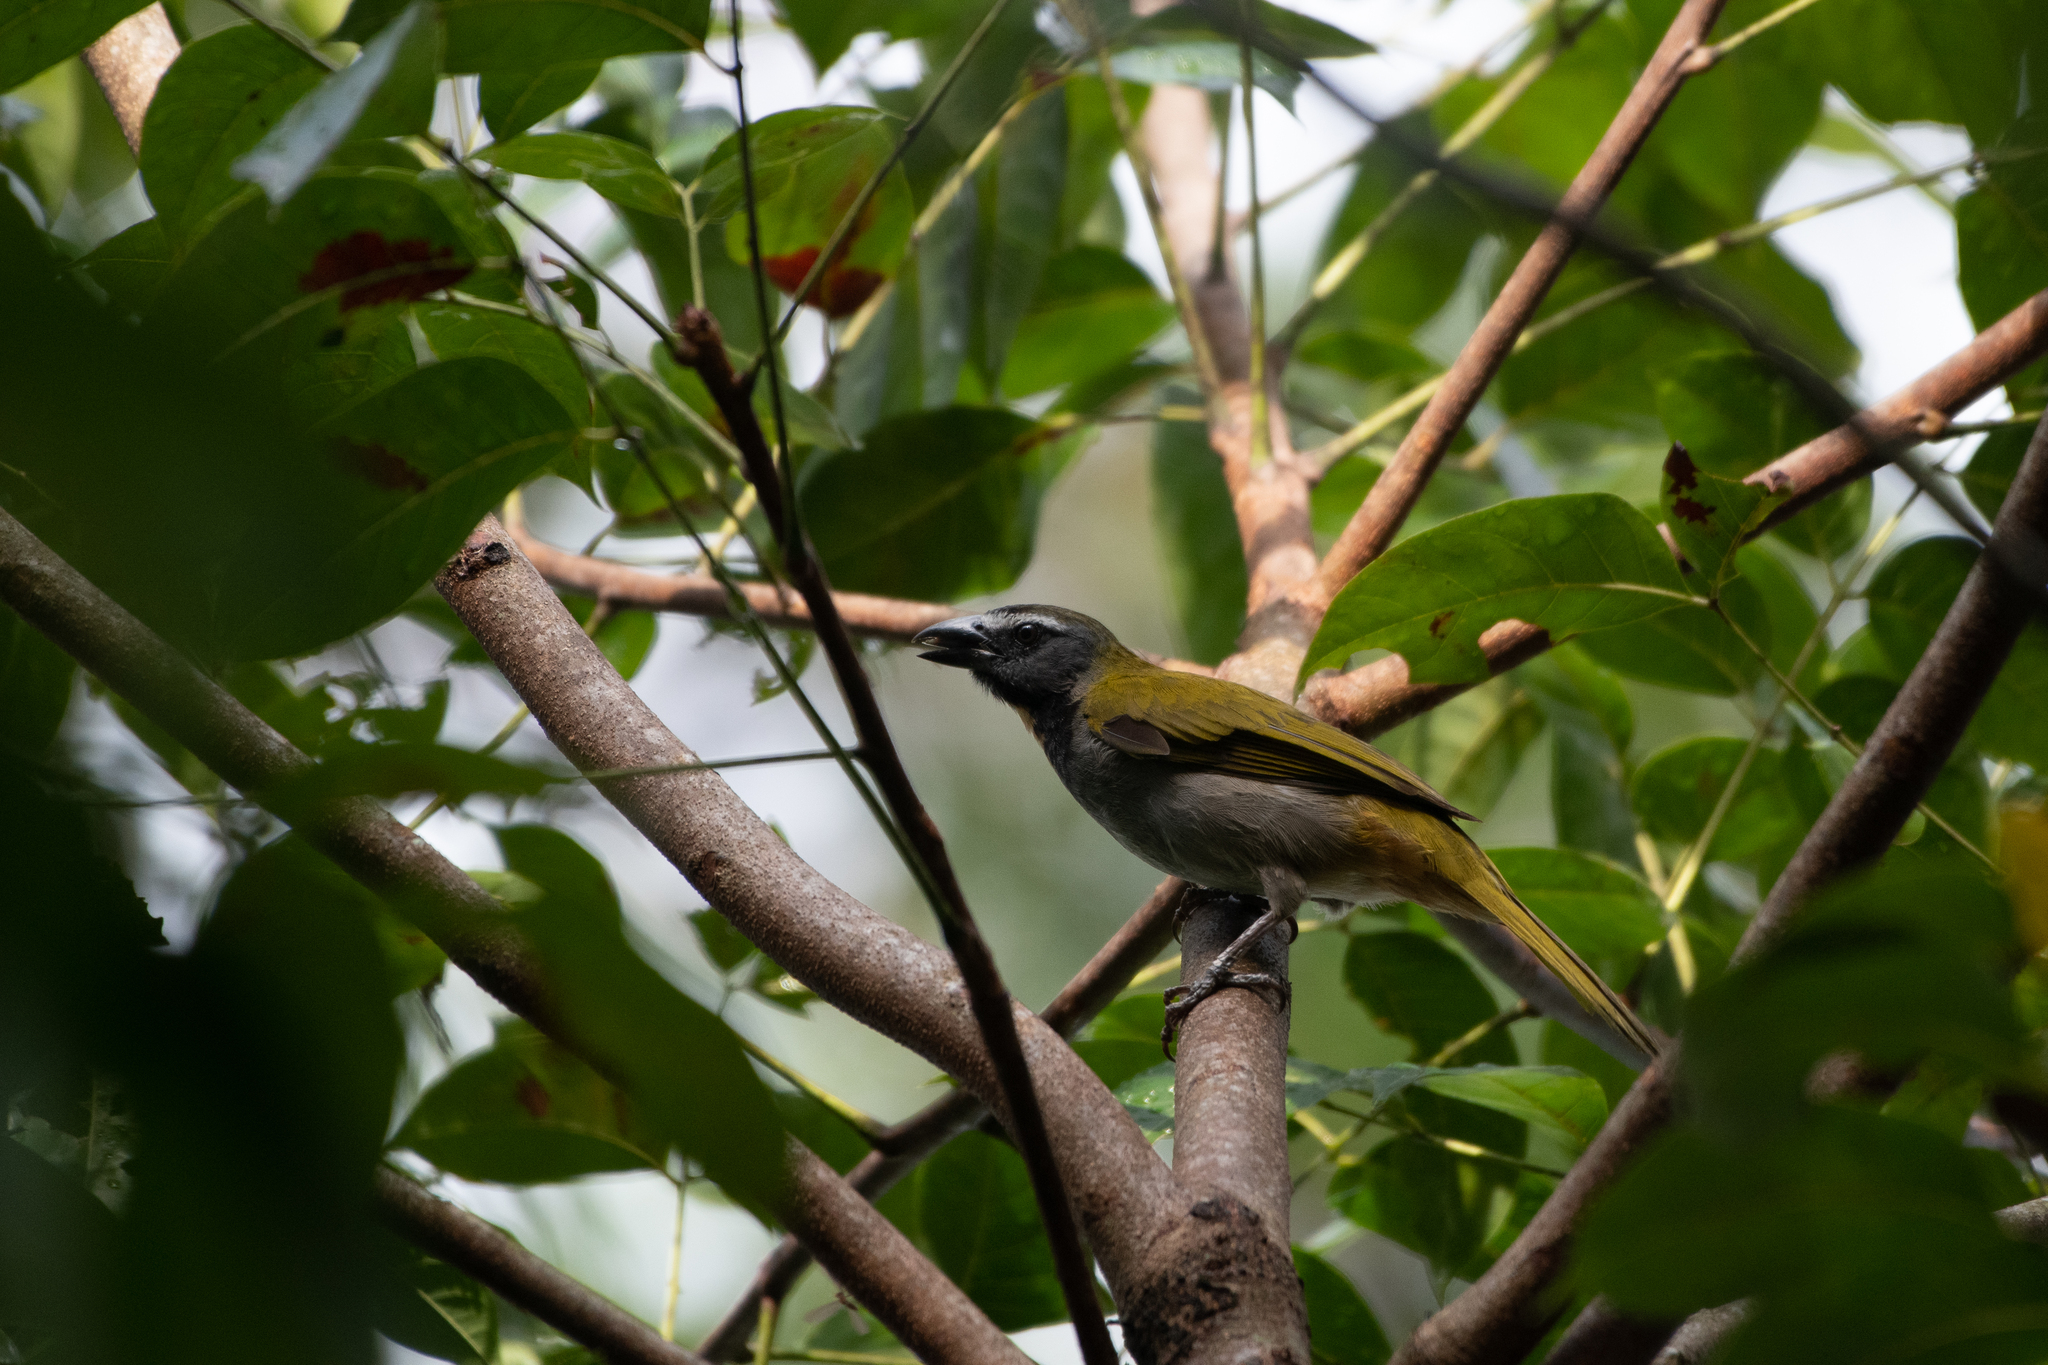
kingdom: Animalia
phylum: Chordata
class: Aves
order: Passeriformes
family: Thraupidae
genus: Saltator
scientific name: Saltator maximus
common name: Buff-throated saltator
